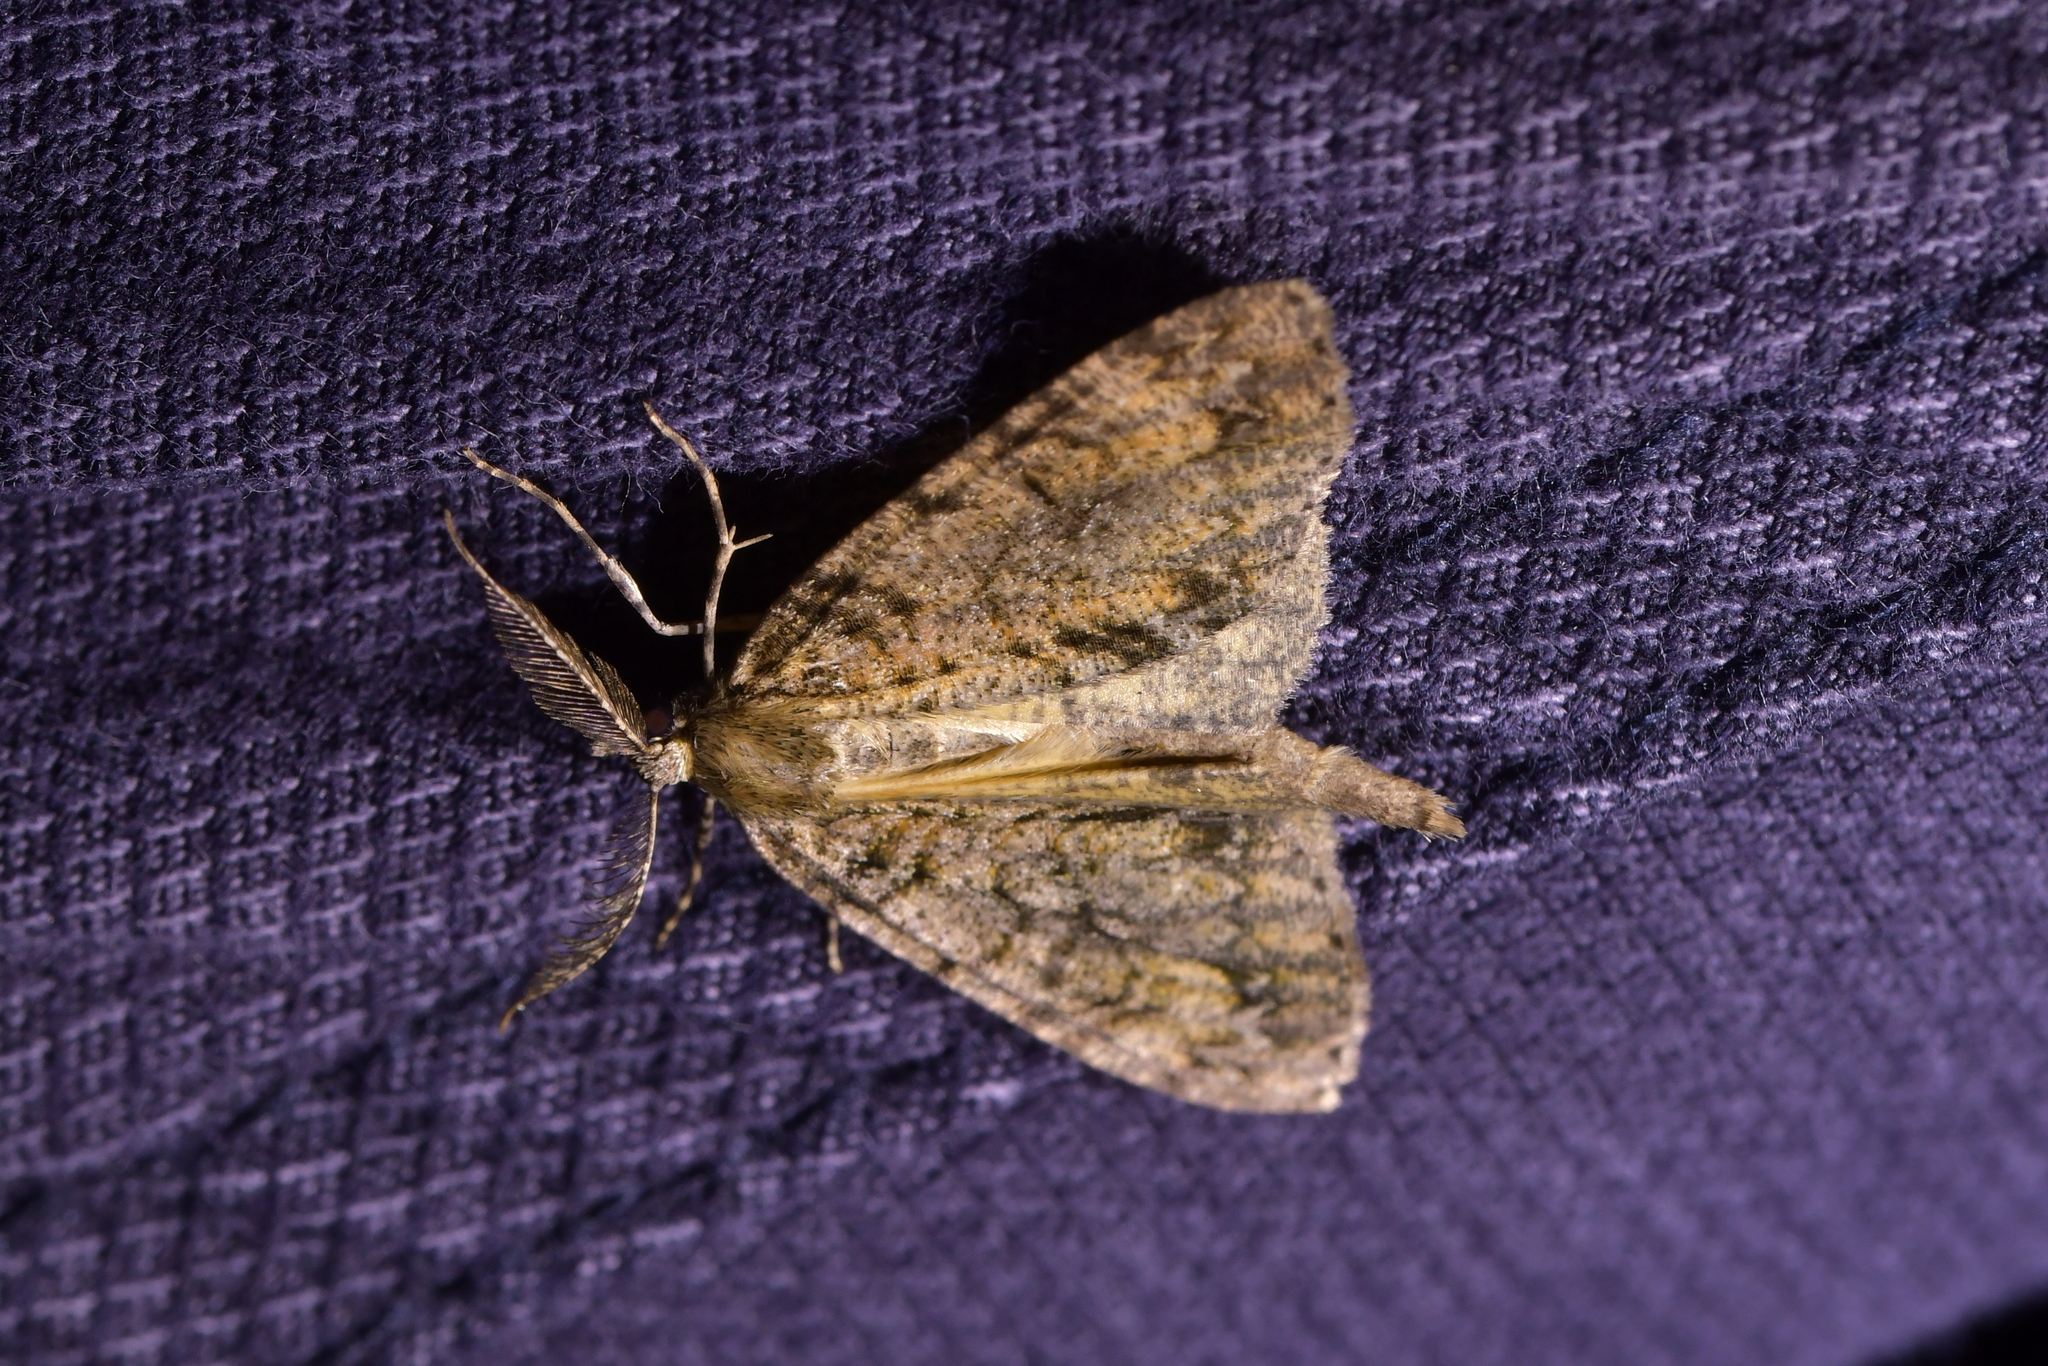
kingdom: Animalia
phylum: Arthropoda
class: Insecta
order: Lepidoptera
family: Geometridae
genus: Pseudocoremia
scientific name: Pseudocoremia suavis
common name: Common forest looper
